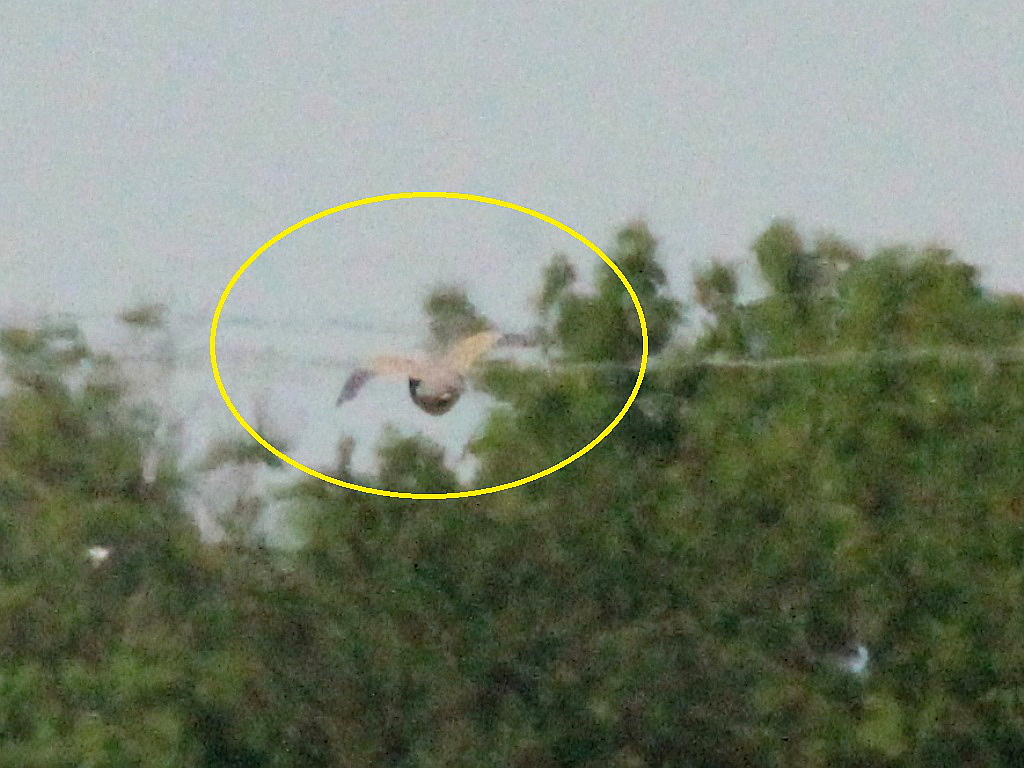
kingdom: Animalia
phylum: Chordata
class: Aves
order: Columbiformes
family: Columbidae
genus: Streptopelia
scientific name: Streptopelia turtur
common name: European turtle dove
